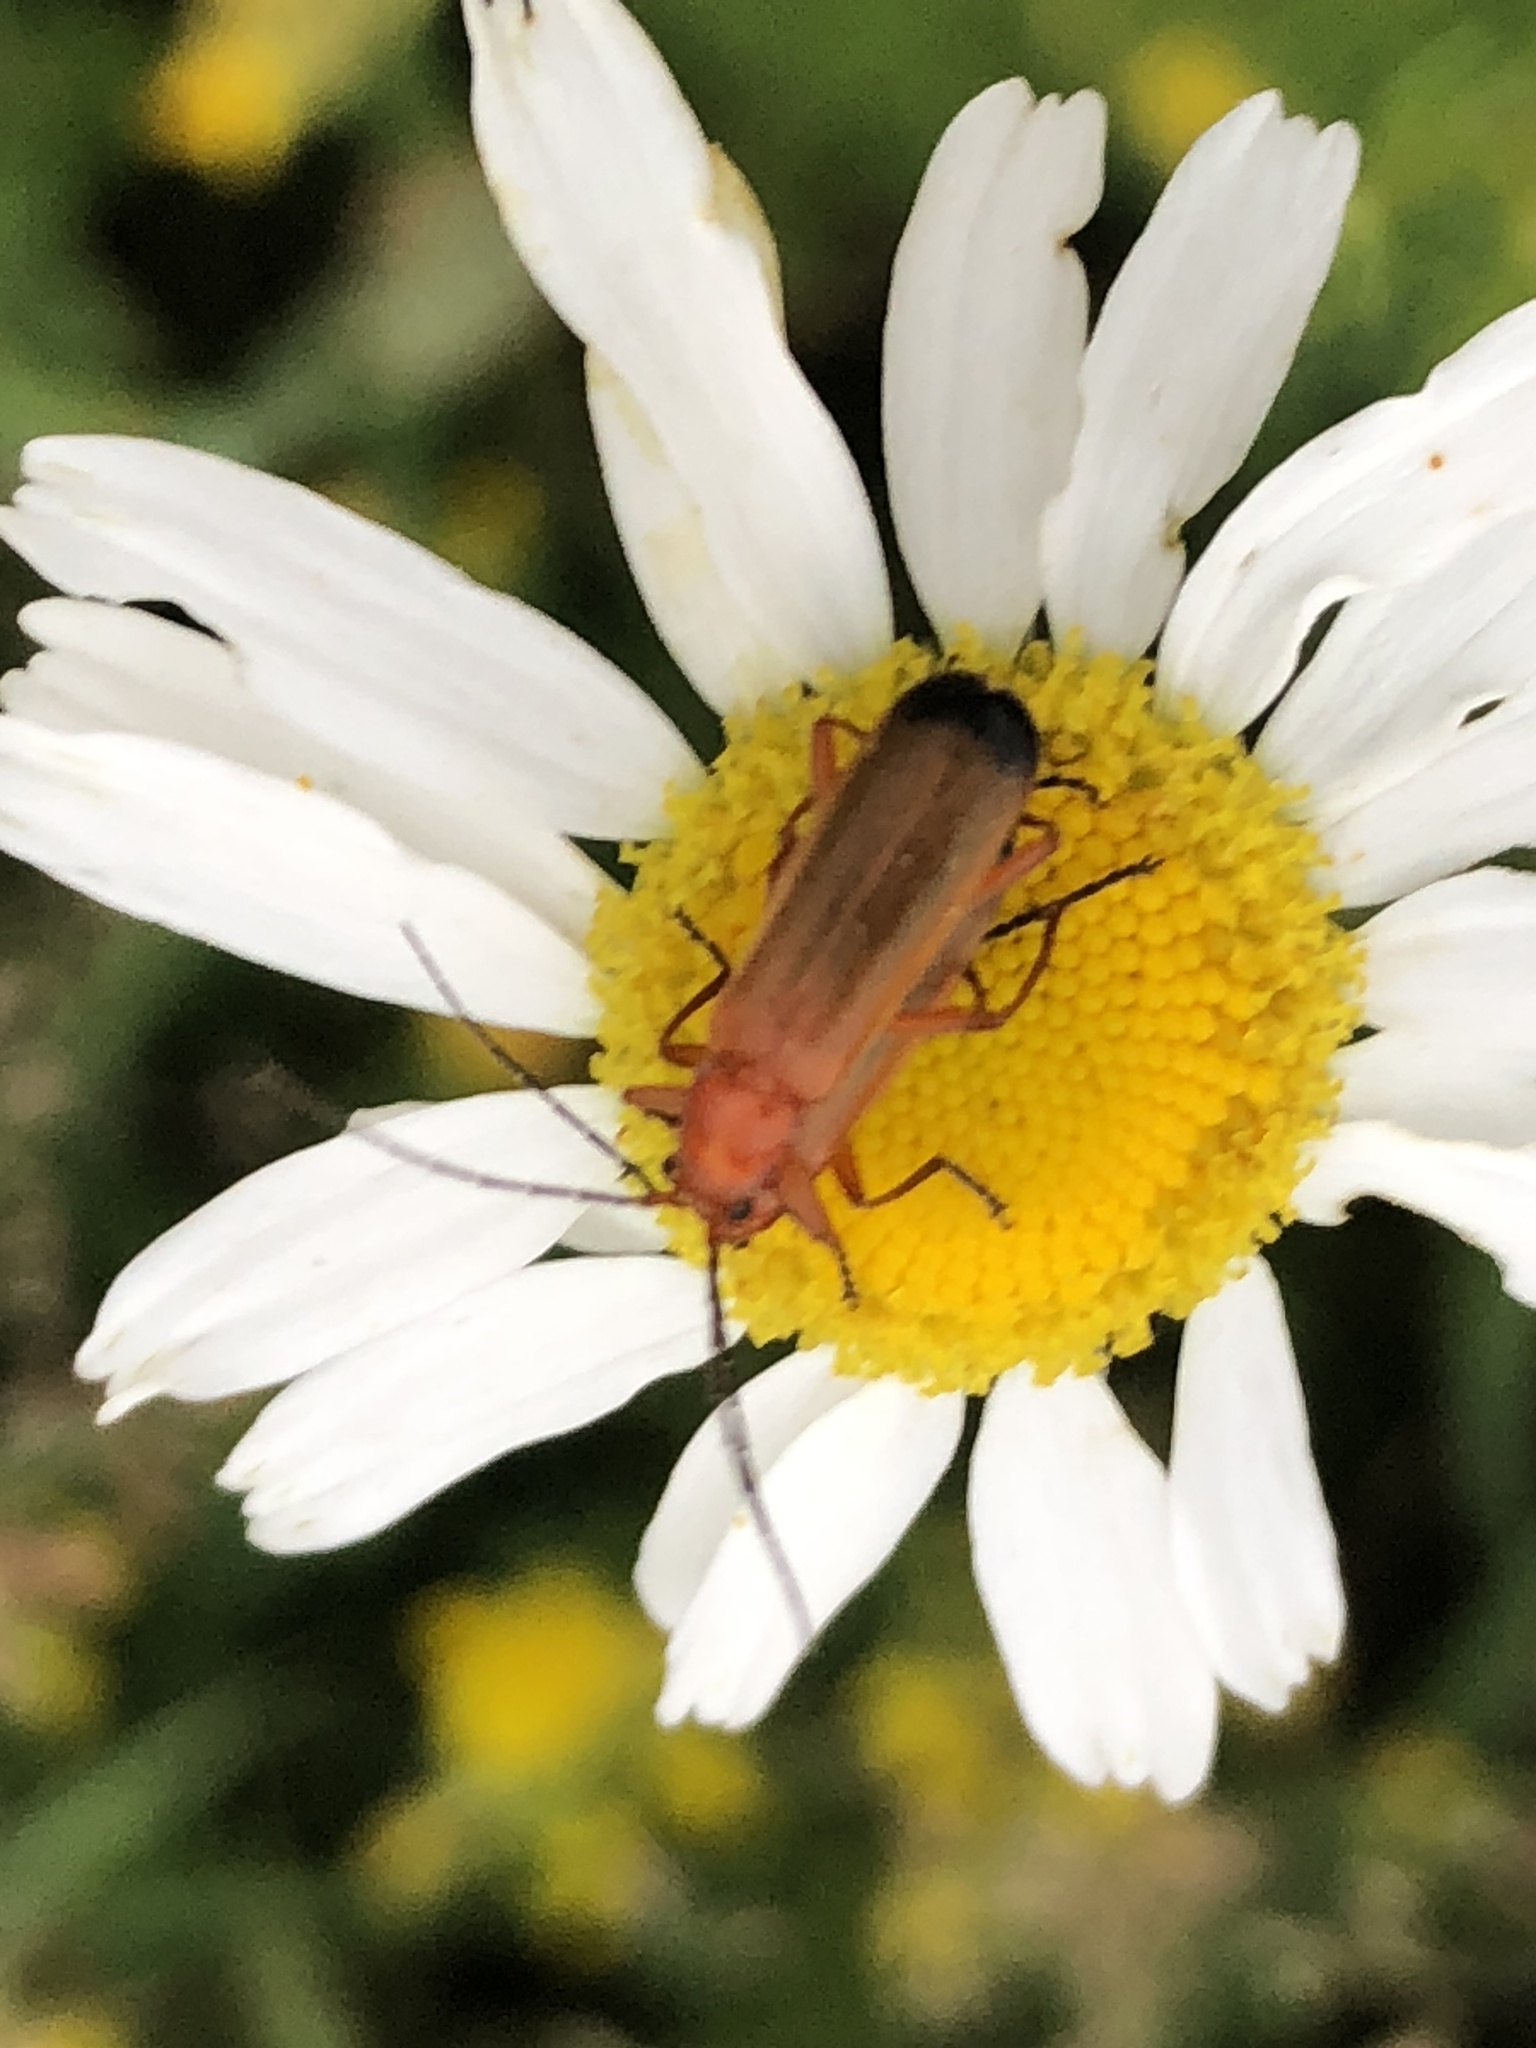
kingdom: Animalia
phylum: Arthropoda
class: Insecta
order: Coleoptera
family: Cantharidae
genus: Rhagonycha
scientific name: Rhagonycha fulva
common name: Common red soldier beetle
